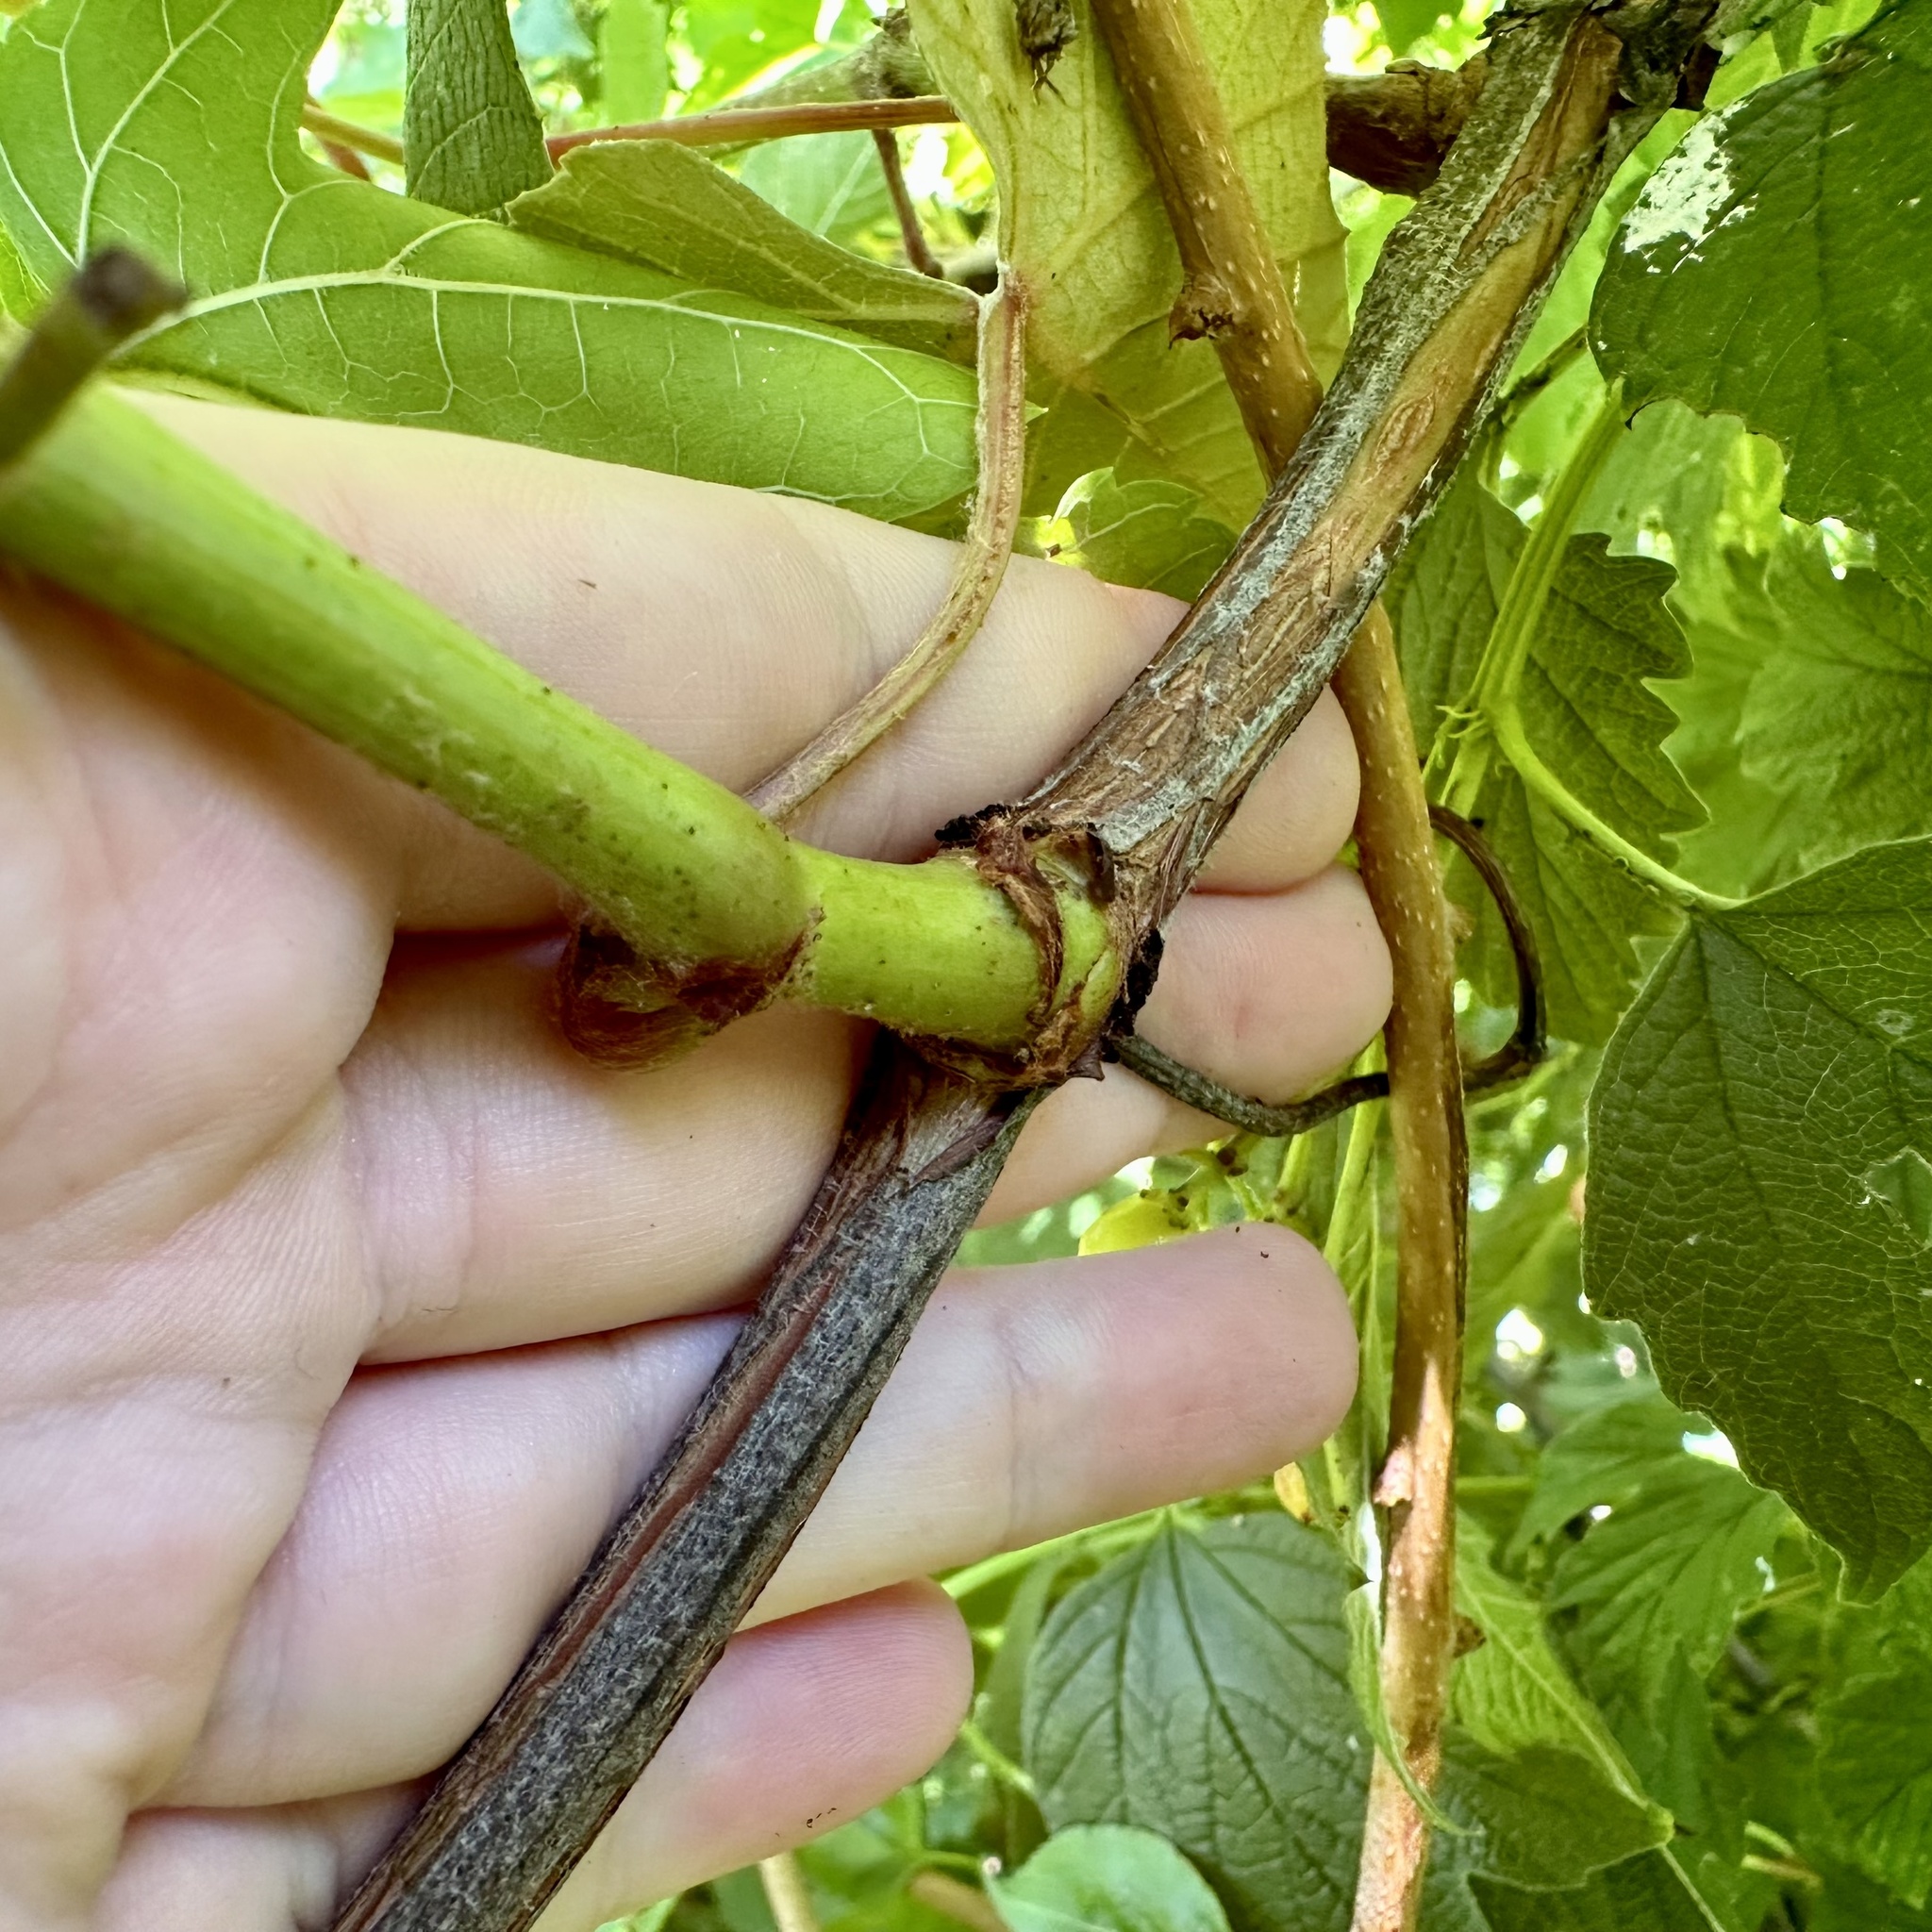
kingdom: Plantae
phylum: Tracheophyta
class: Magnoliopsida
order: Vitales
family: Vitaceae
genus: Vitis
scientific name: Vitis labrusca
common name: Concord grape
